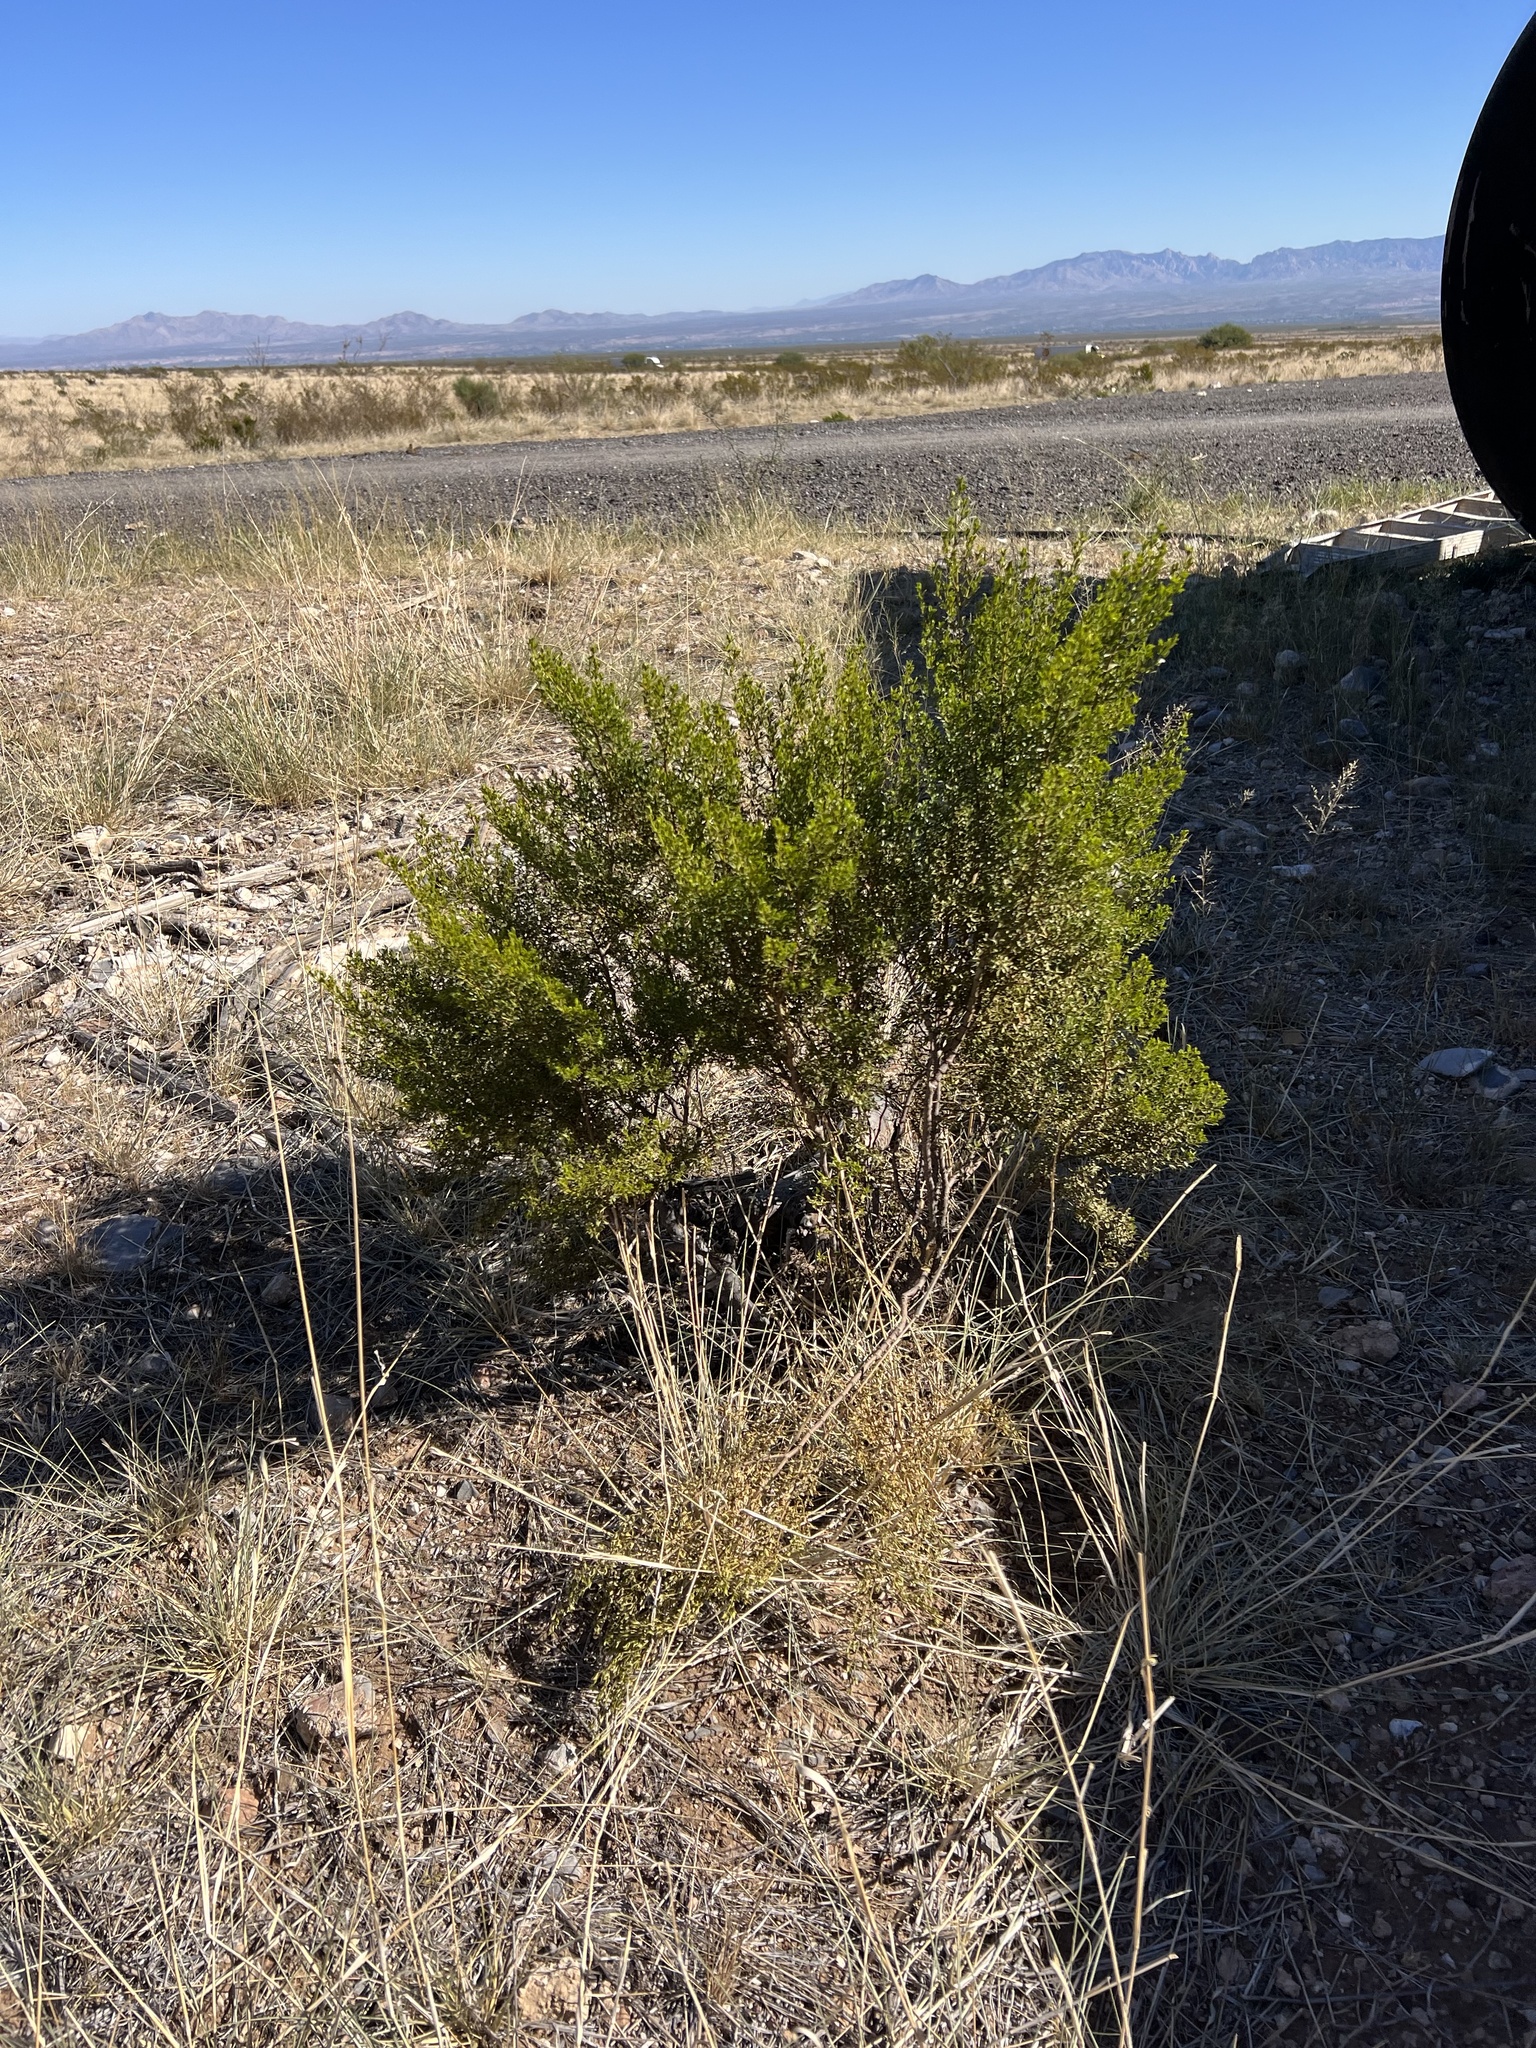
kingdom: Plantae
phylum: Tracheophyta
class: Magnoliopsida
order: Zygophyllales
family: Zygophyllaceae
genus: Larrea
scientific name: Larrea tridentata
